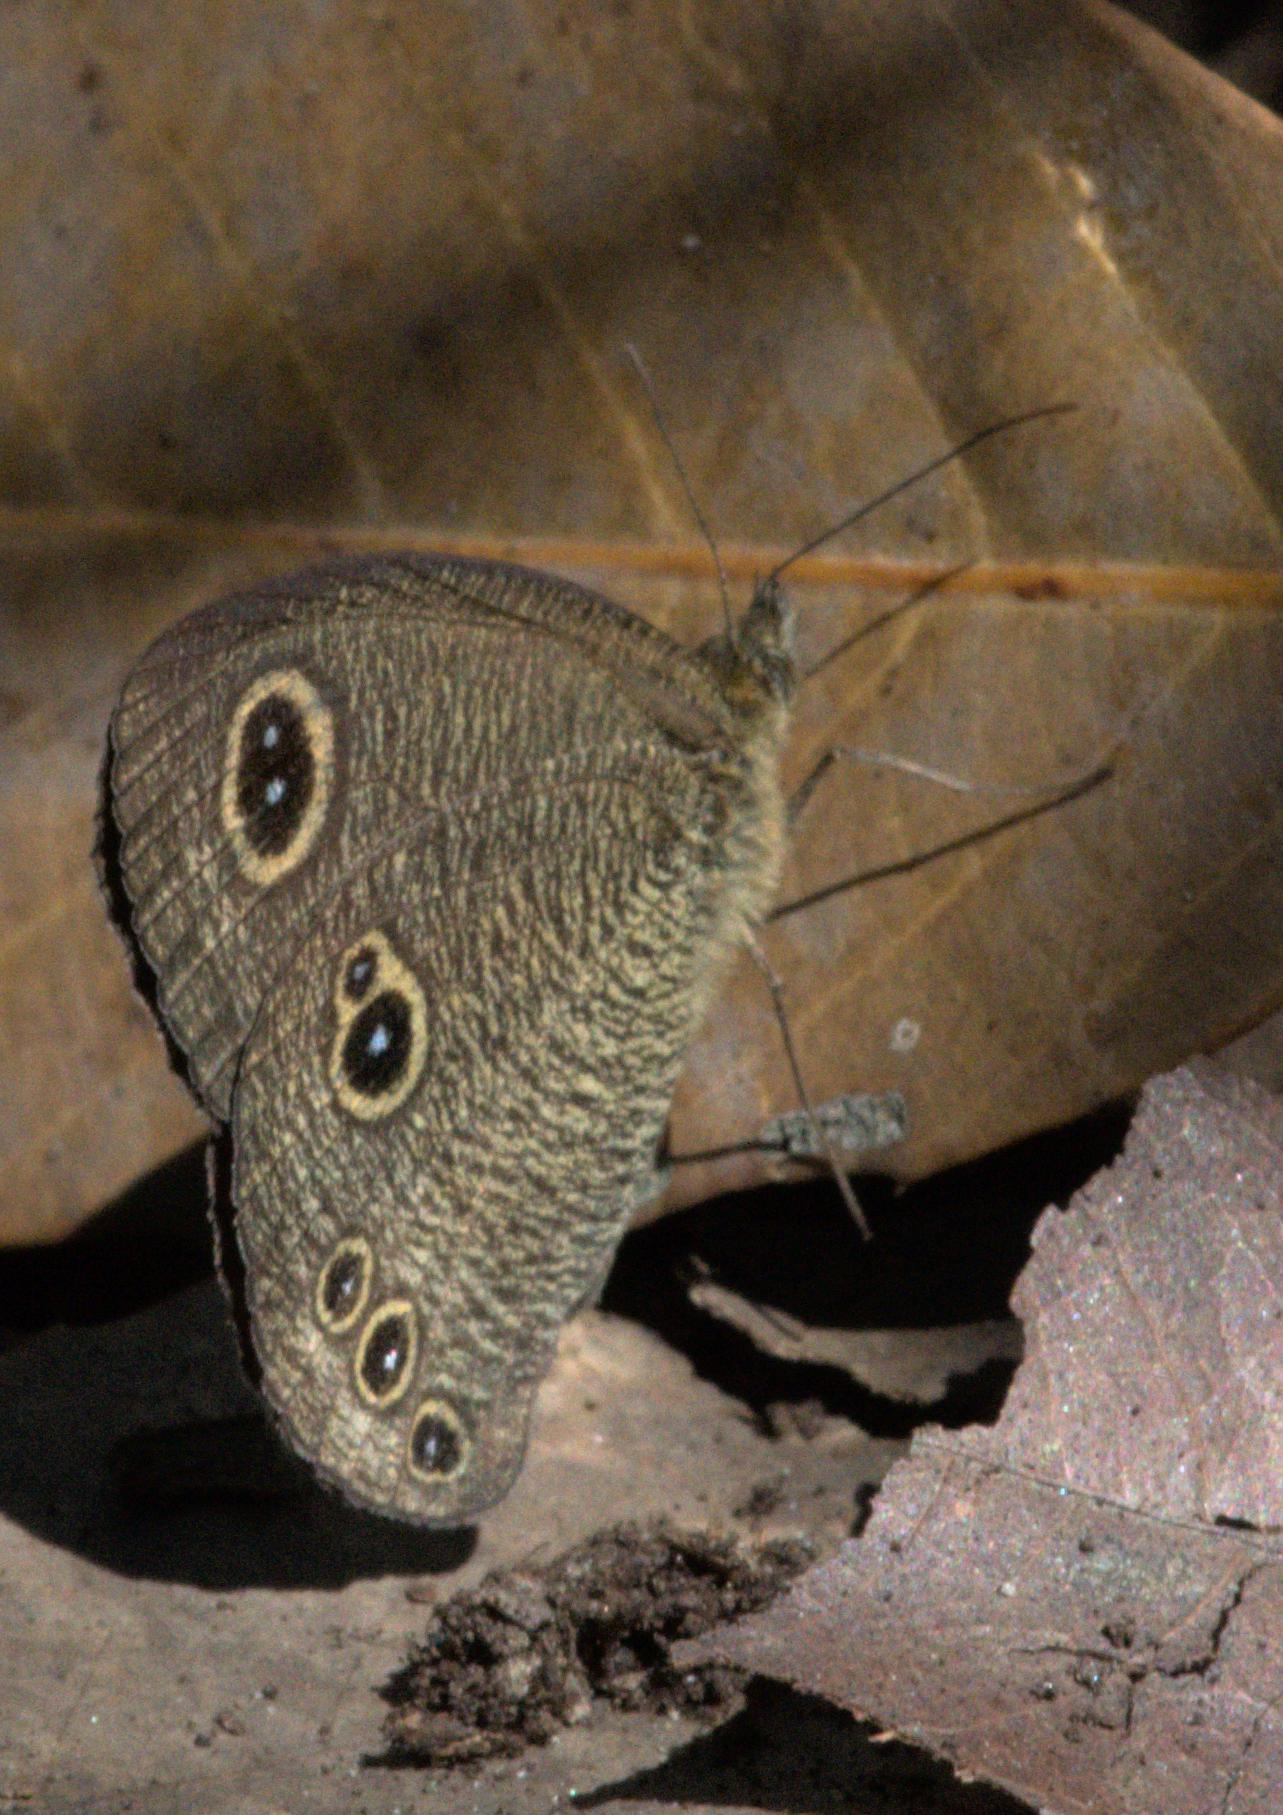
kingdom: Animalia
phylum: Arthropoda
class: Insecta
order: Lepidoptera
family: Nymphalidae
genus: Ypthima
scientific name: Ypthima nikaea
